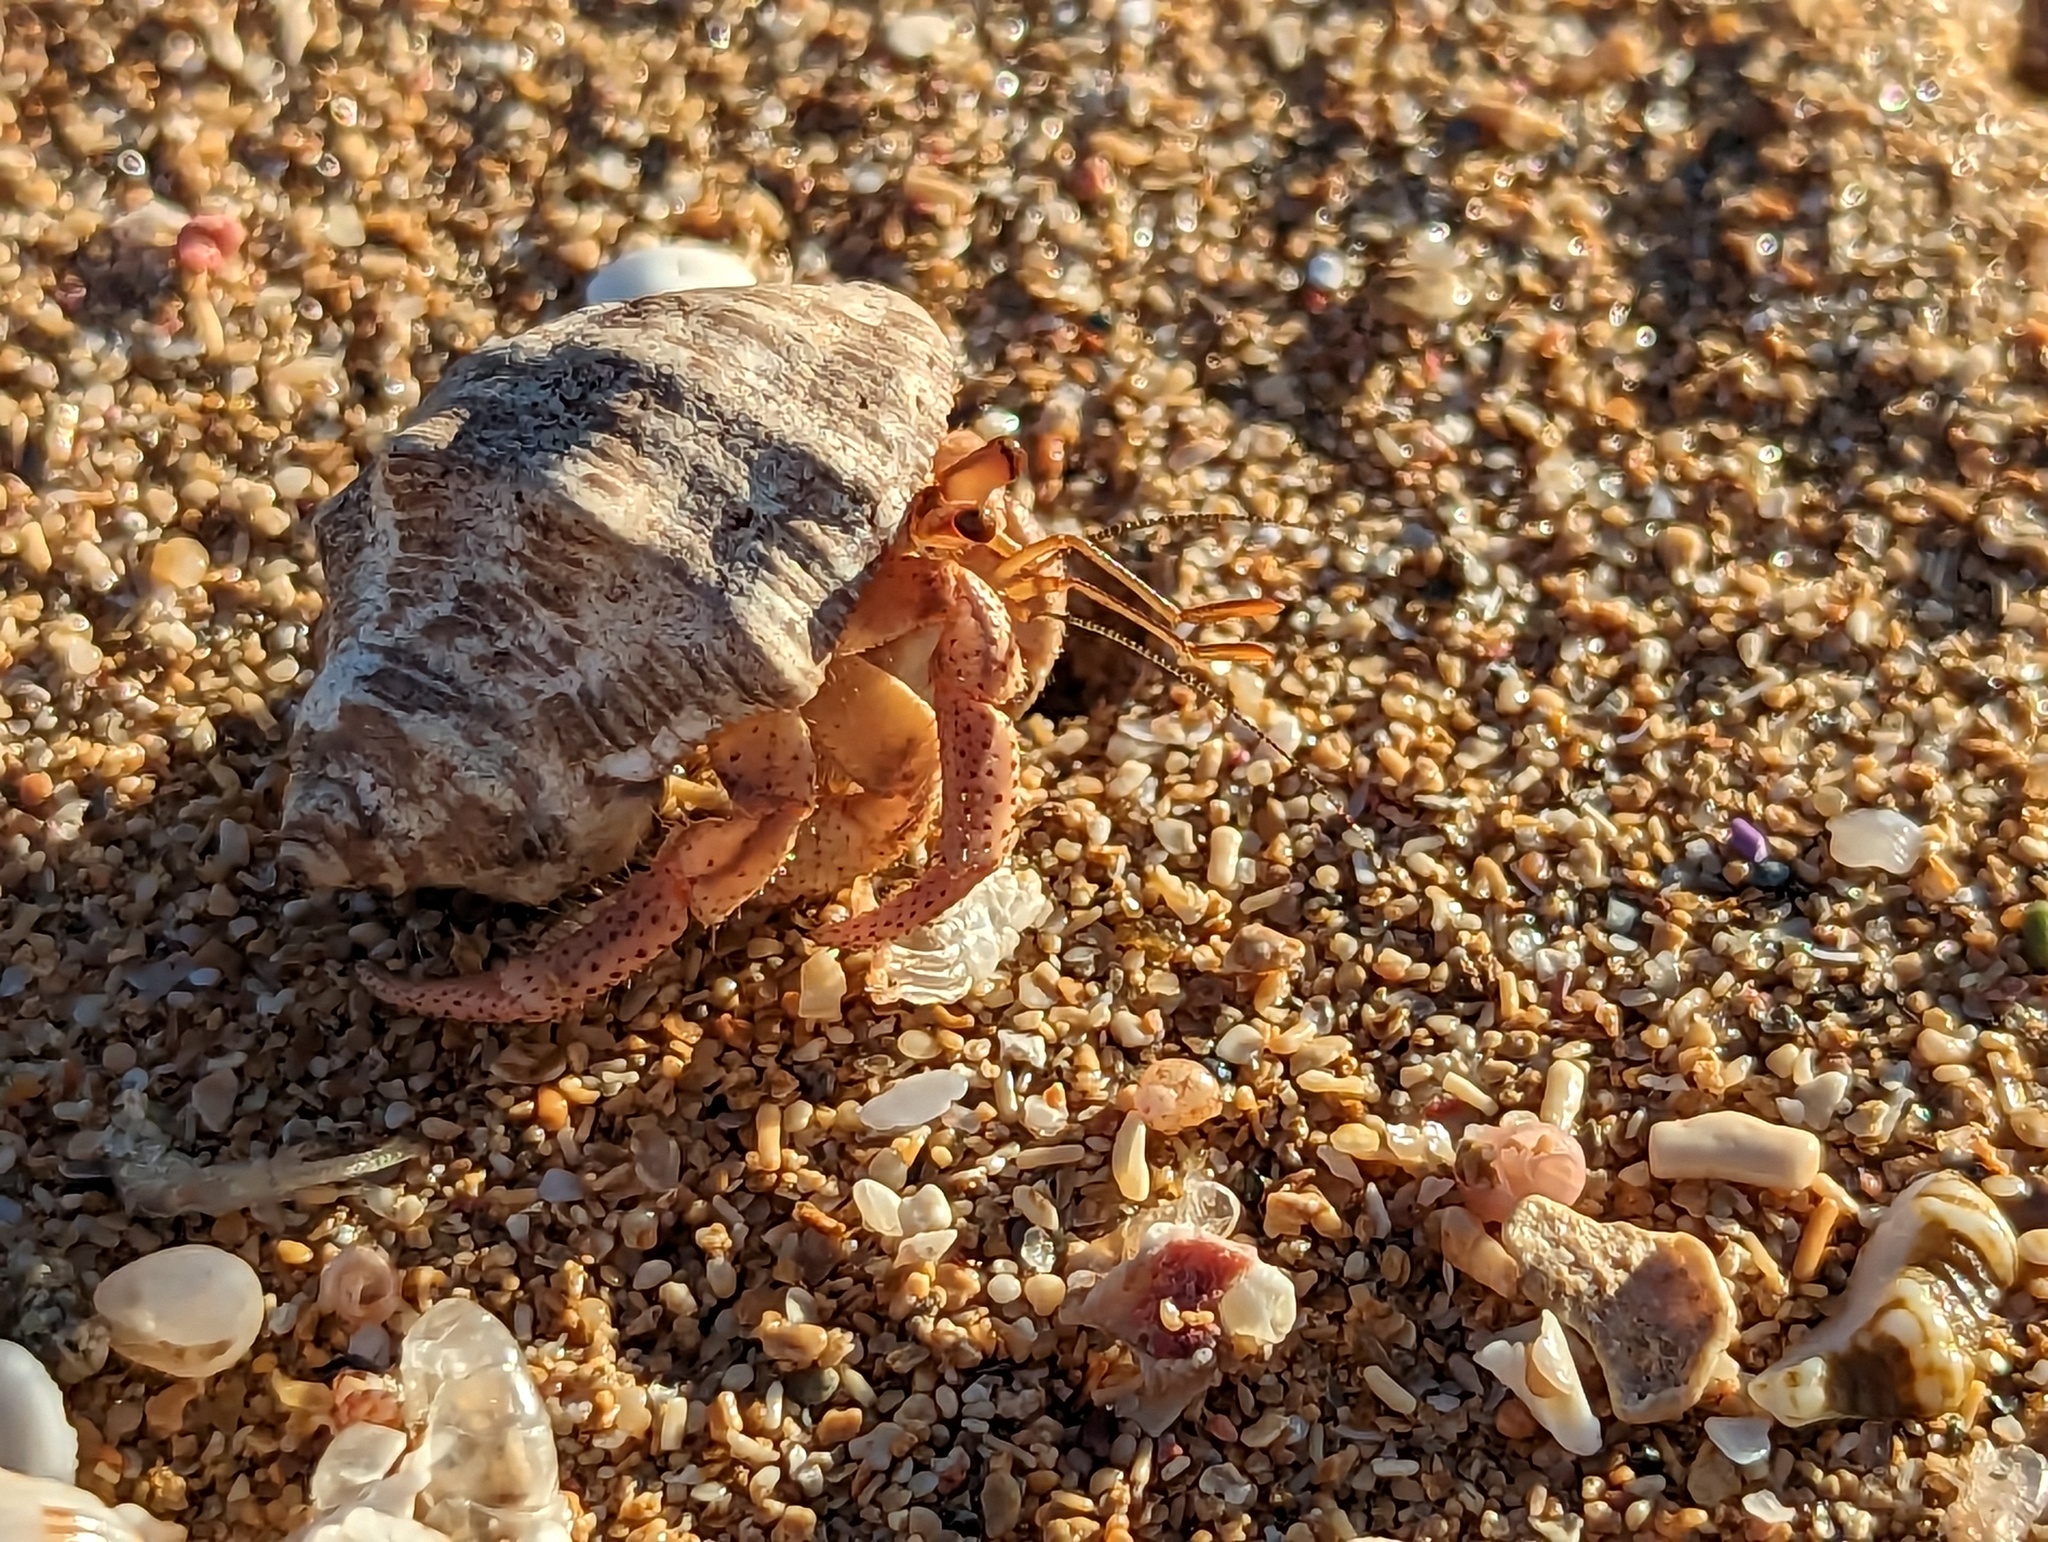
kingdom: Animalia
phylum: Arthropoda
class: Malacostraca
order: Decapoda
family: Coenobitidae
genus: Coenobita
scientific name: Coenobita clypeatus
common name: Caribbean hermit crab
